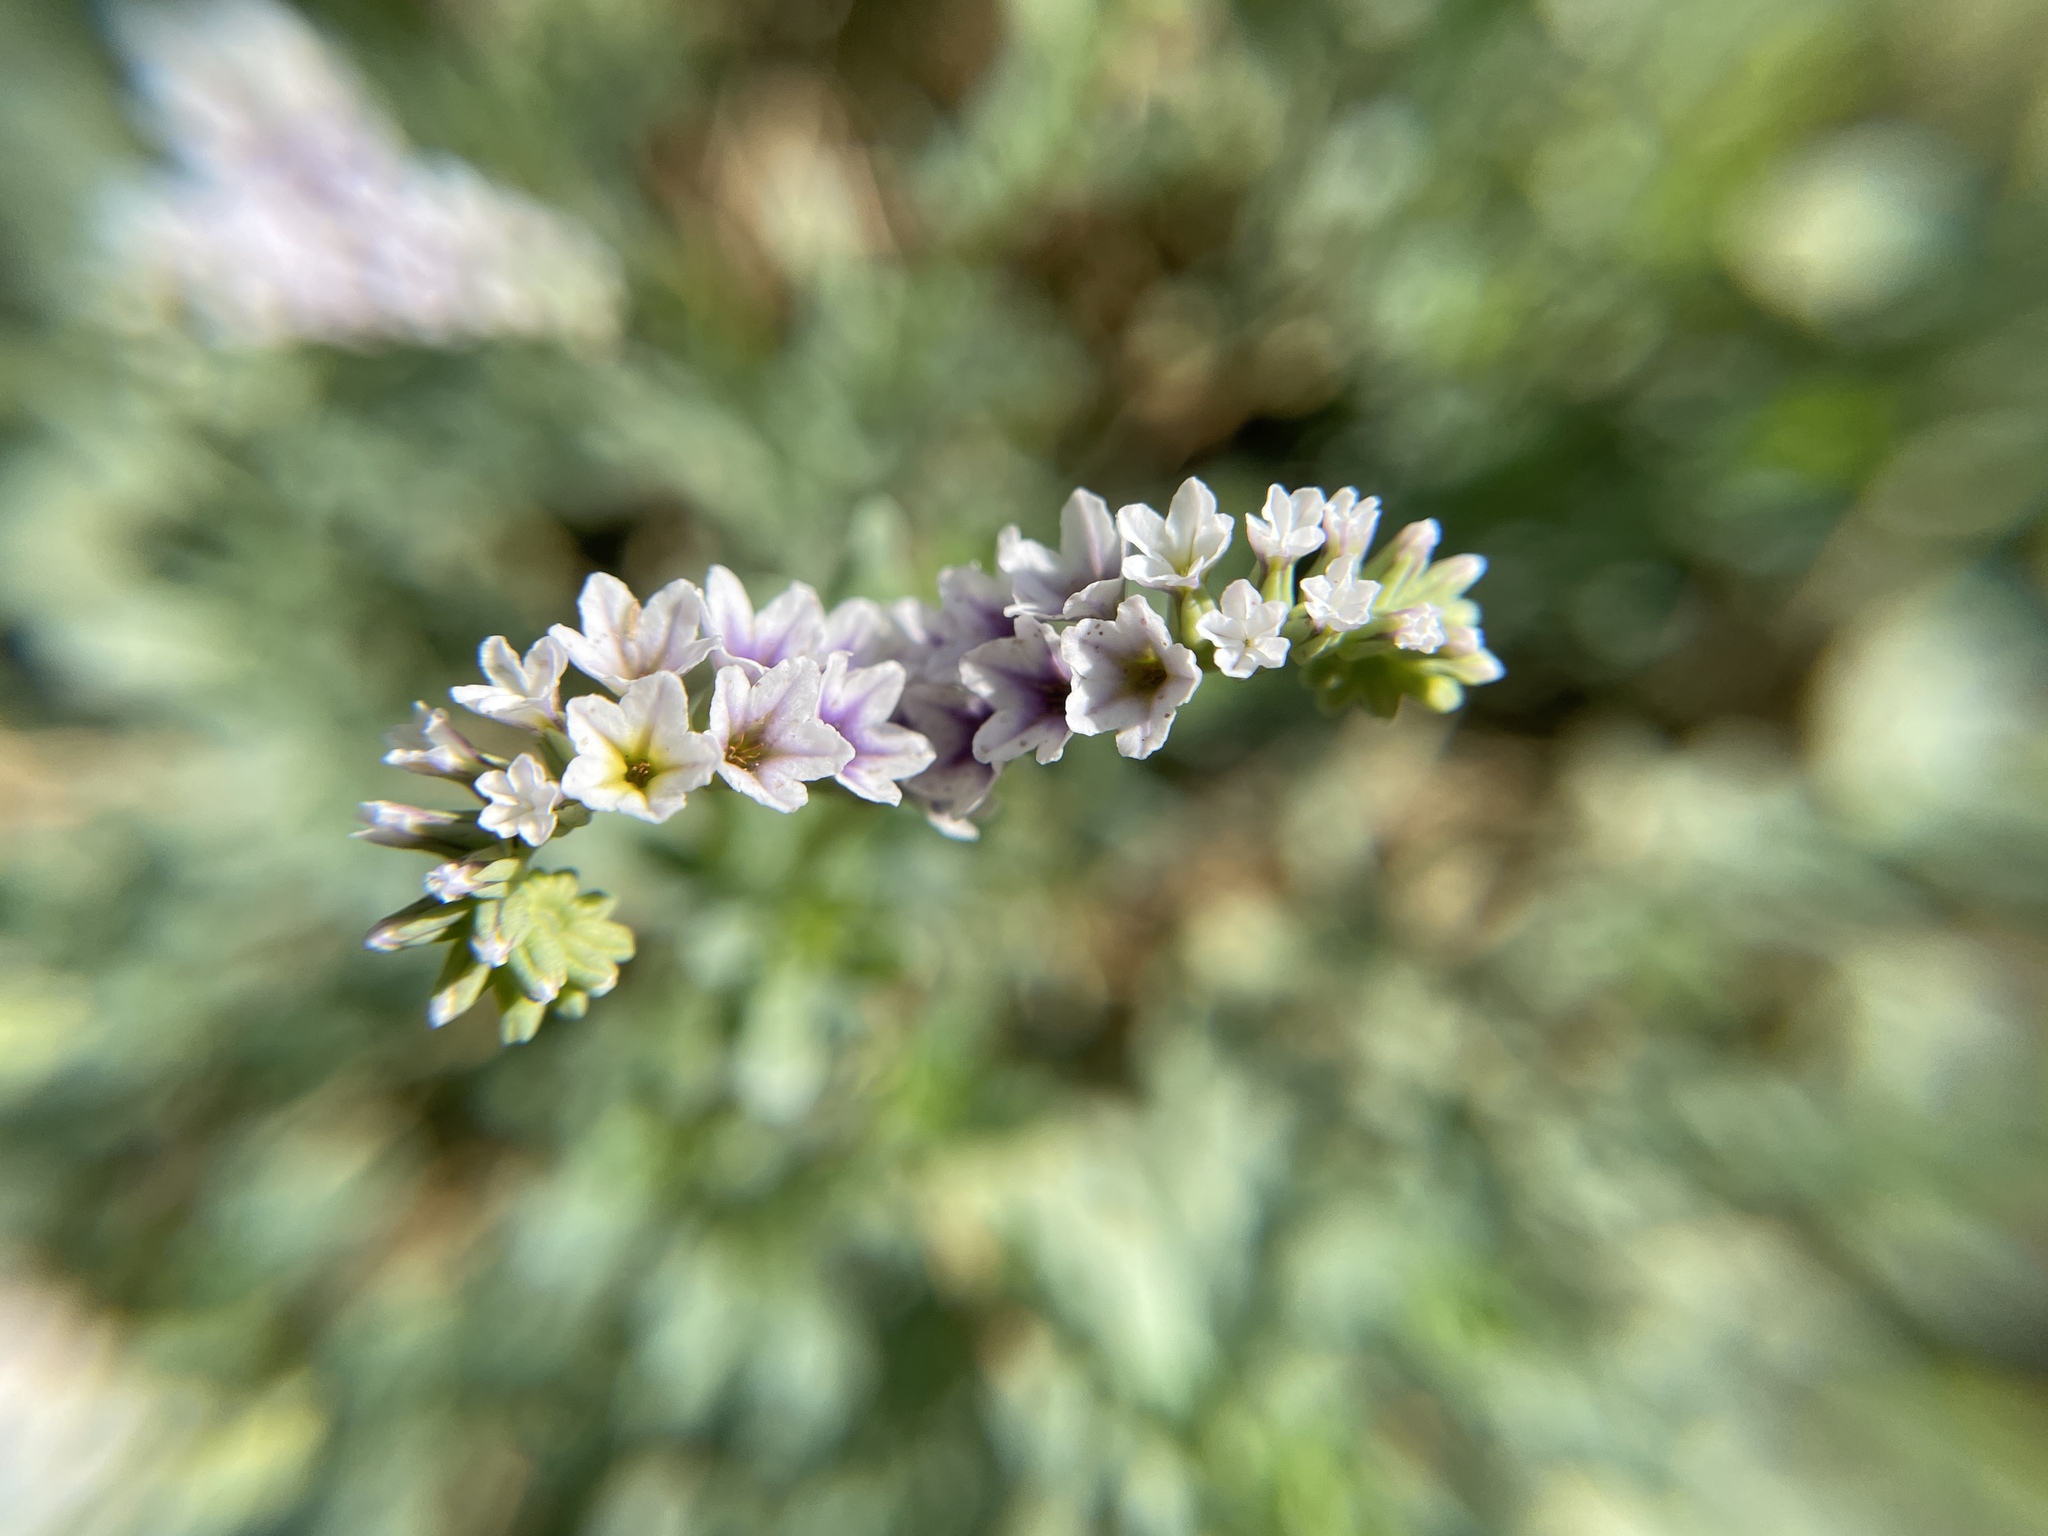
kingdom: Plantae
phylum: Tracheophyta
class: Magnoliopsida
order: Boraginales
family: Heliotropiaceae
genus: Heliotropium
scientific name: Heliotropium curassavicum
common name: Seaside heliotrope
